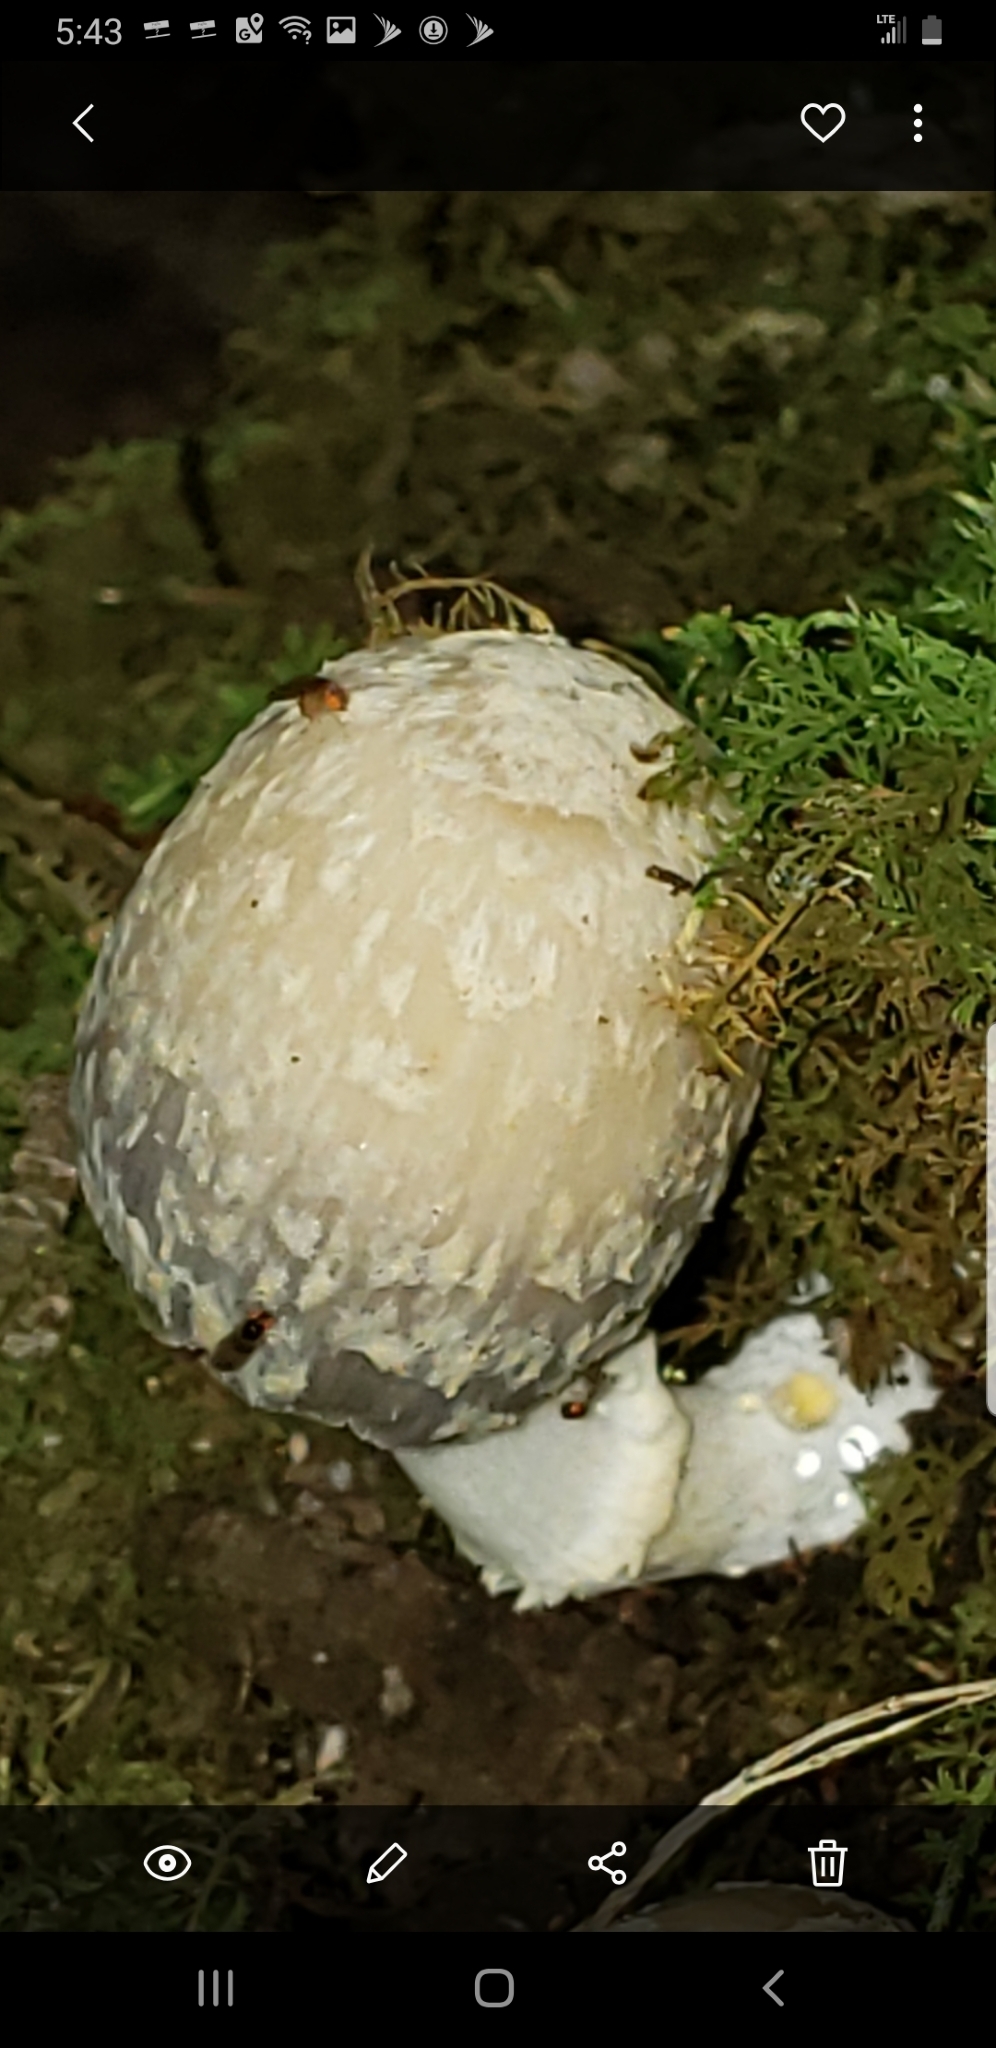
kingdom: Fungi
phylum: Basidiomycota
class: Agaricomycetes
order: Agaricales
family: Psathyrellaceae
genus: Coprinopsis
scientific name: Coprinopsis variegata
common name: Scaly ink cap
